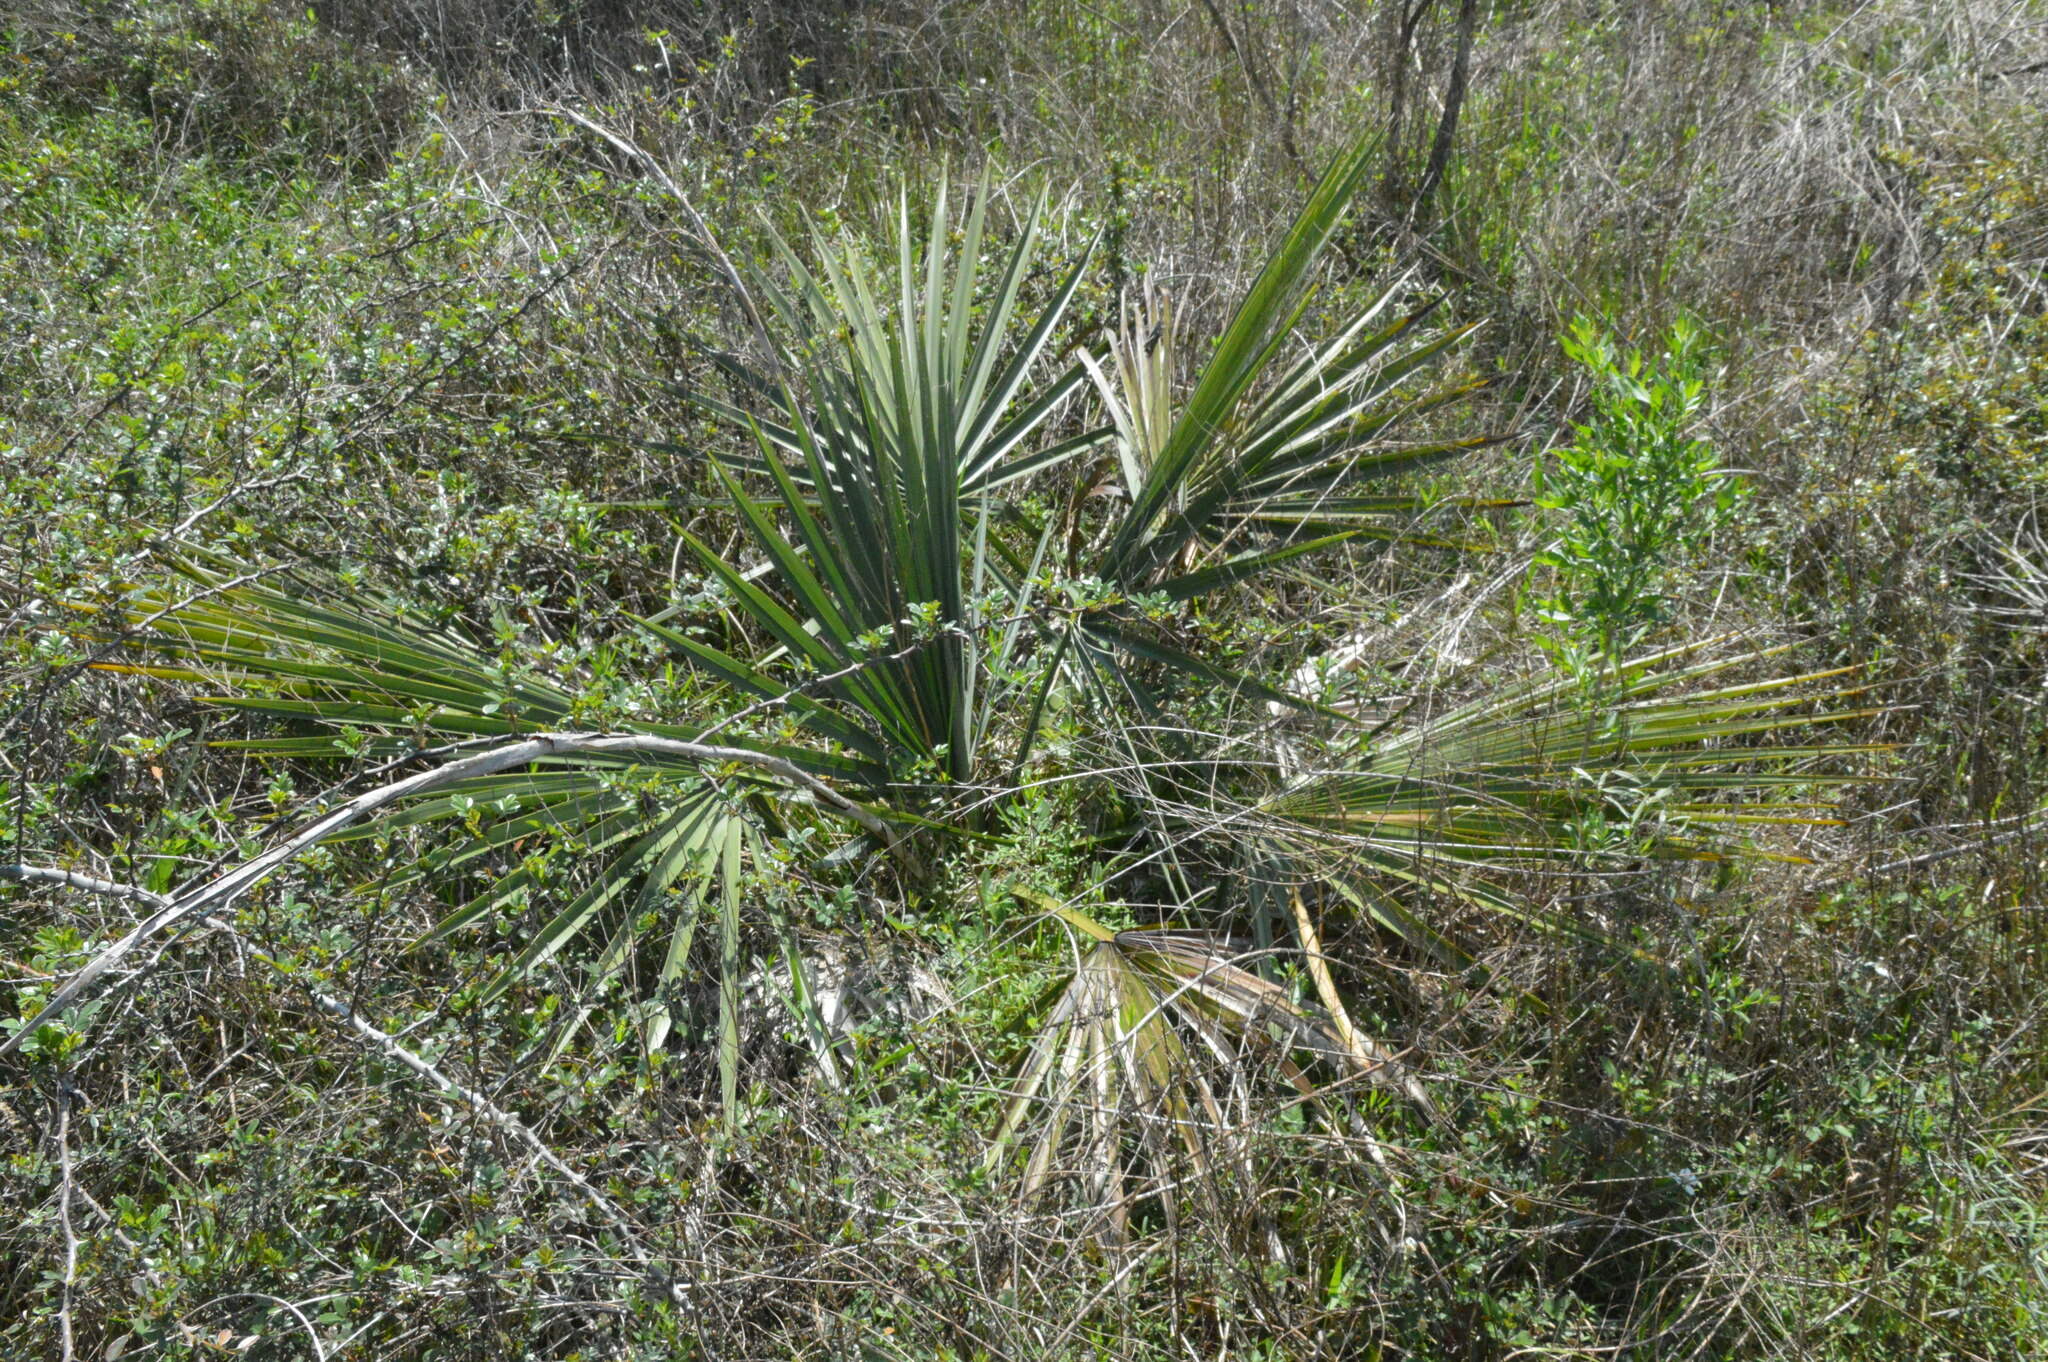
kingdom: Plantae
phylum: Tracheophyta
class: Liliopsida
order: Arecales
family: Arecaceae
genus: Sabal
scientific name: Sabal minor
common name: Dwarf palmetto
